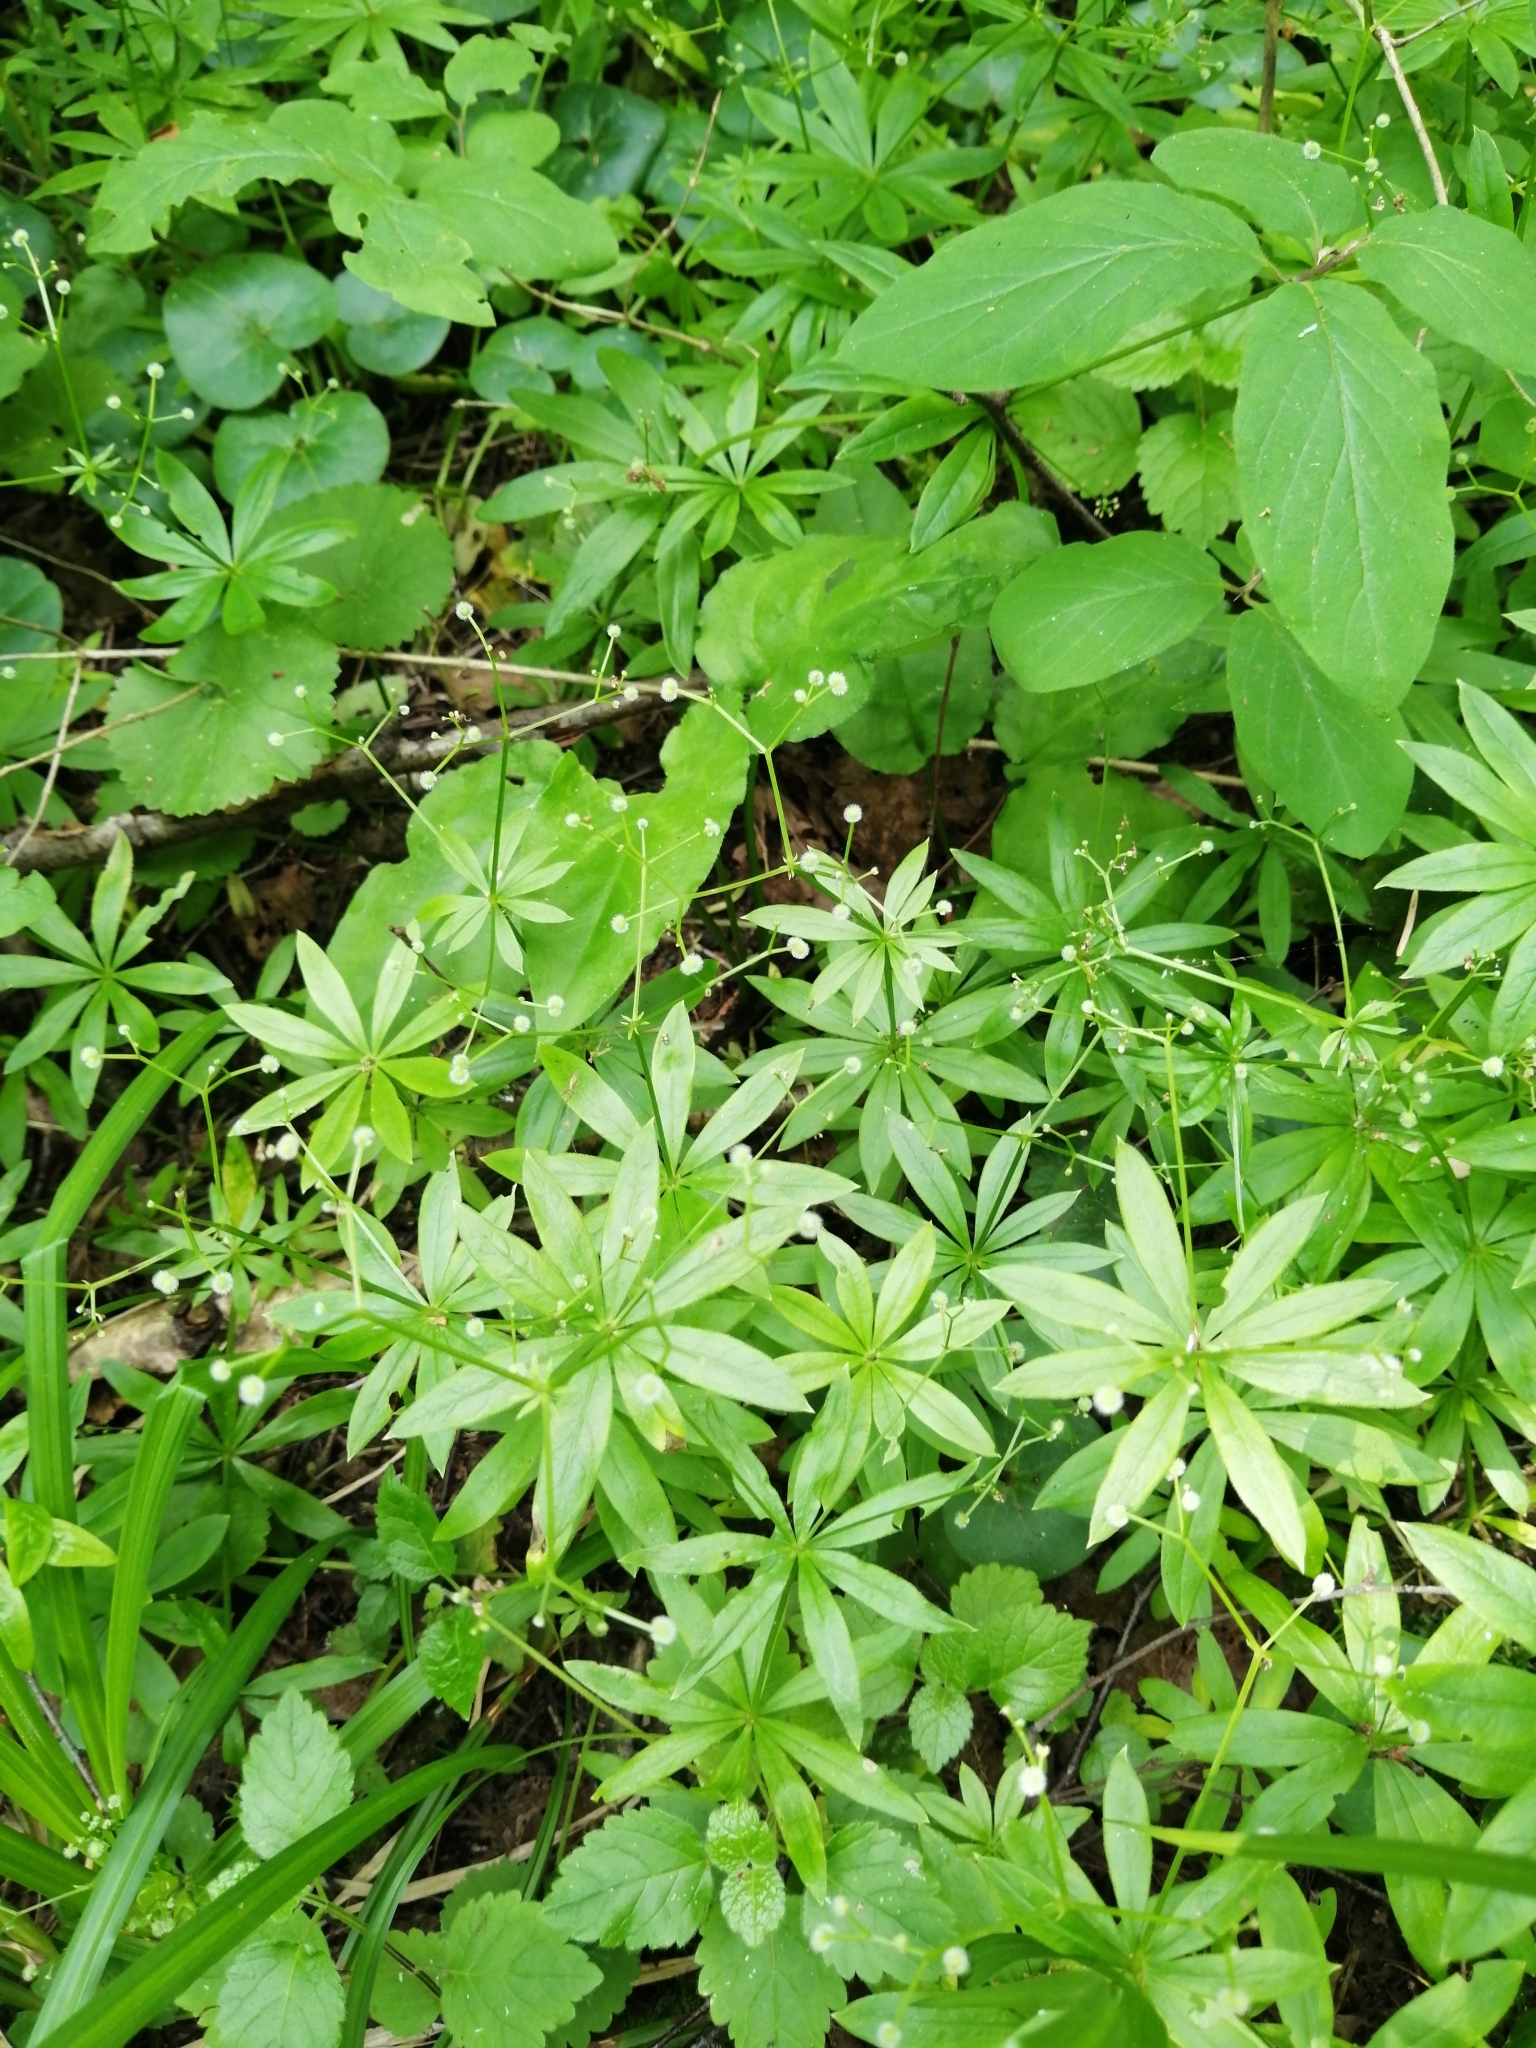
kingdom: Plantae
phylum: Tracheophyta
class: Magnoliopsida
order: Gentianales
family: Rubiaceae
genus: Galium
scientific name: Galium odoratum
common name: Sweet woodruff
